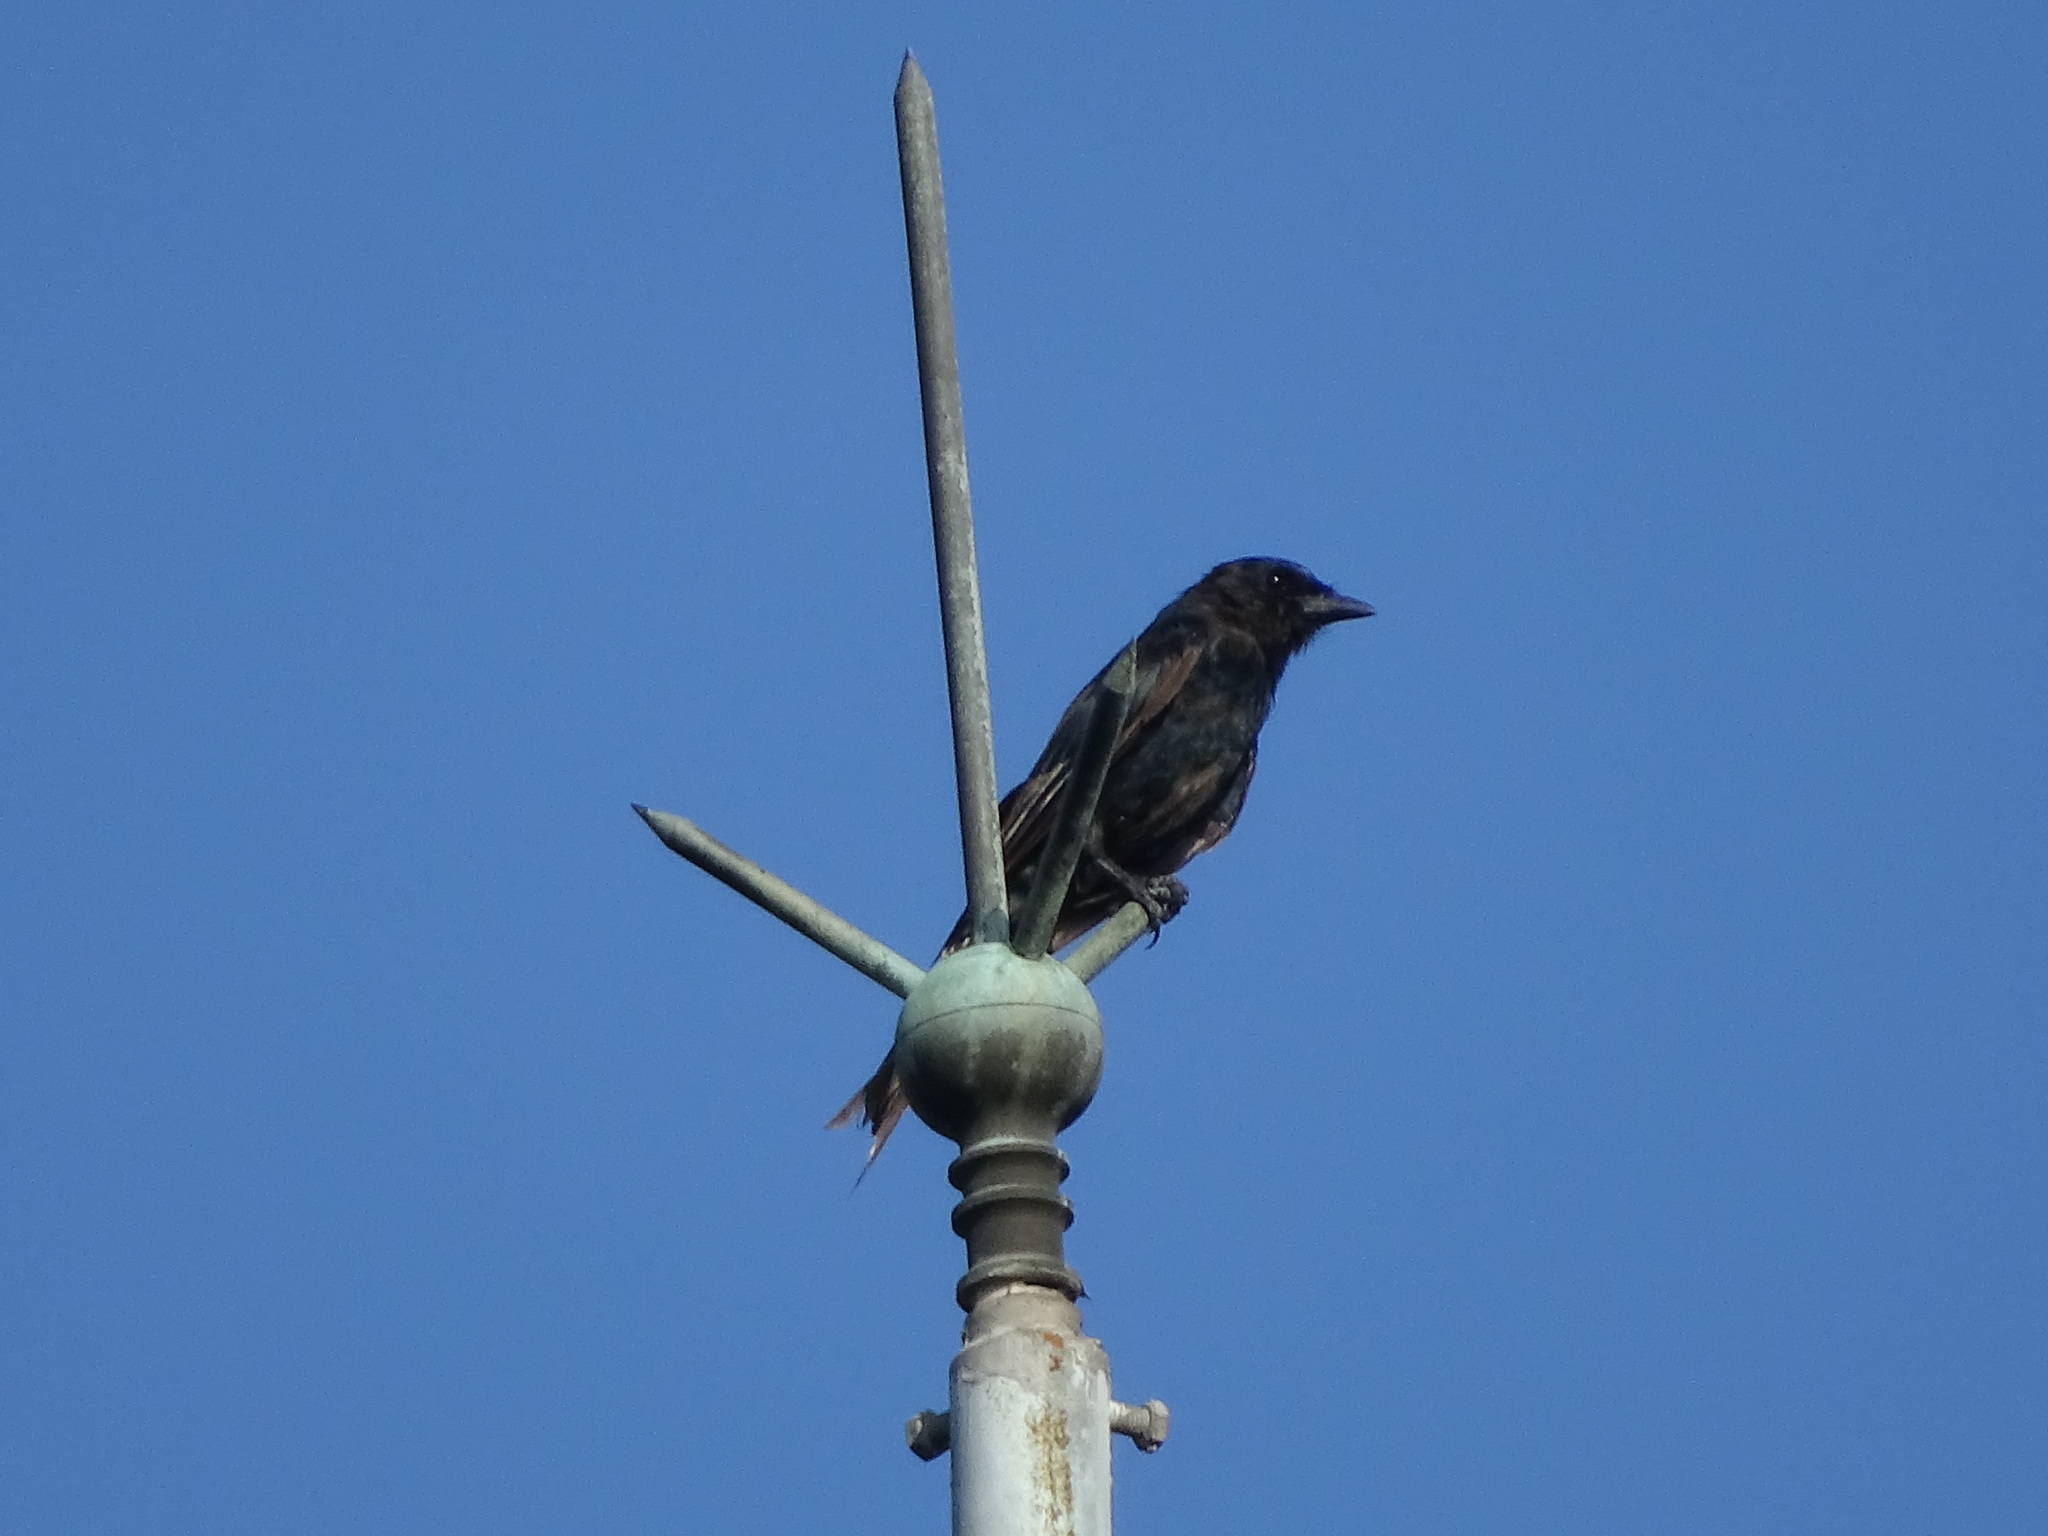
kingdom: Animalia
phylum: Chordata
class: Aves
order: Passeriformes
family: Dicruridae
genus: Dicrurus
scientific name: Dicrurus macrocercus
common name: Black drongo
